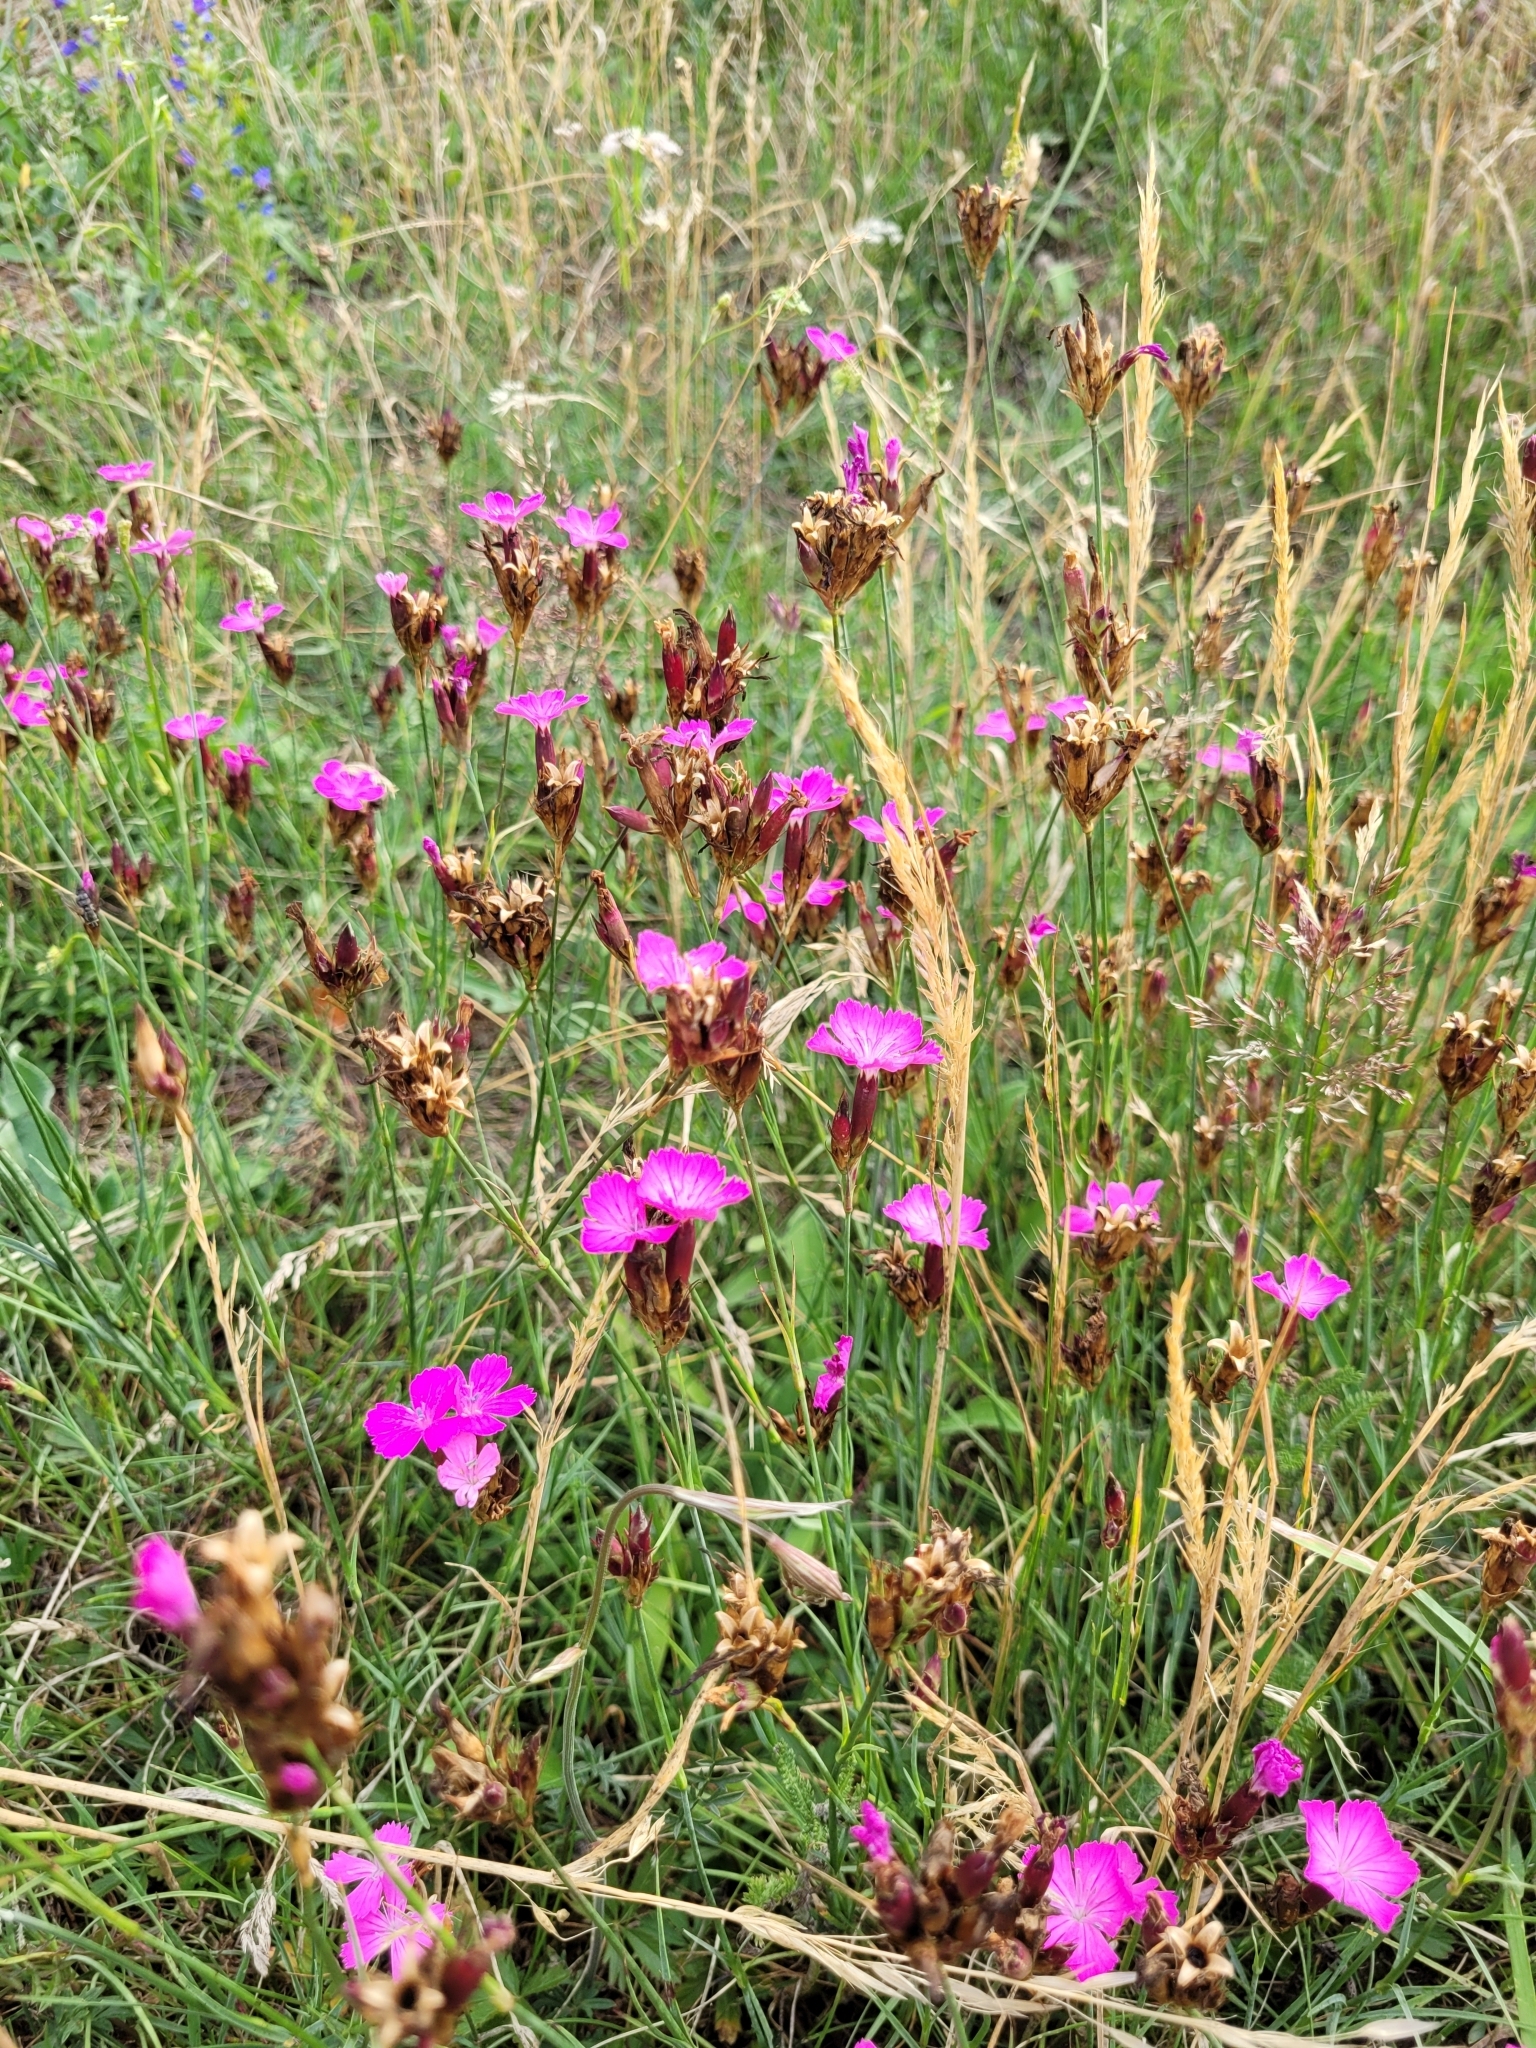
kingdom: Plantae
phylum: Tracheophyta
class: Magnoliopsida
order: Caryophyllales
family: Caryophyllaceae
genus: Dianthus
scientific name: Dianthus carthusianorum
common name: Carthusian pink
